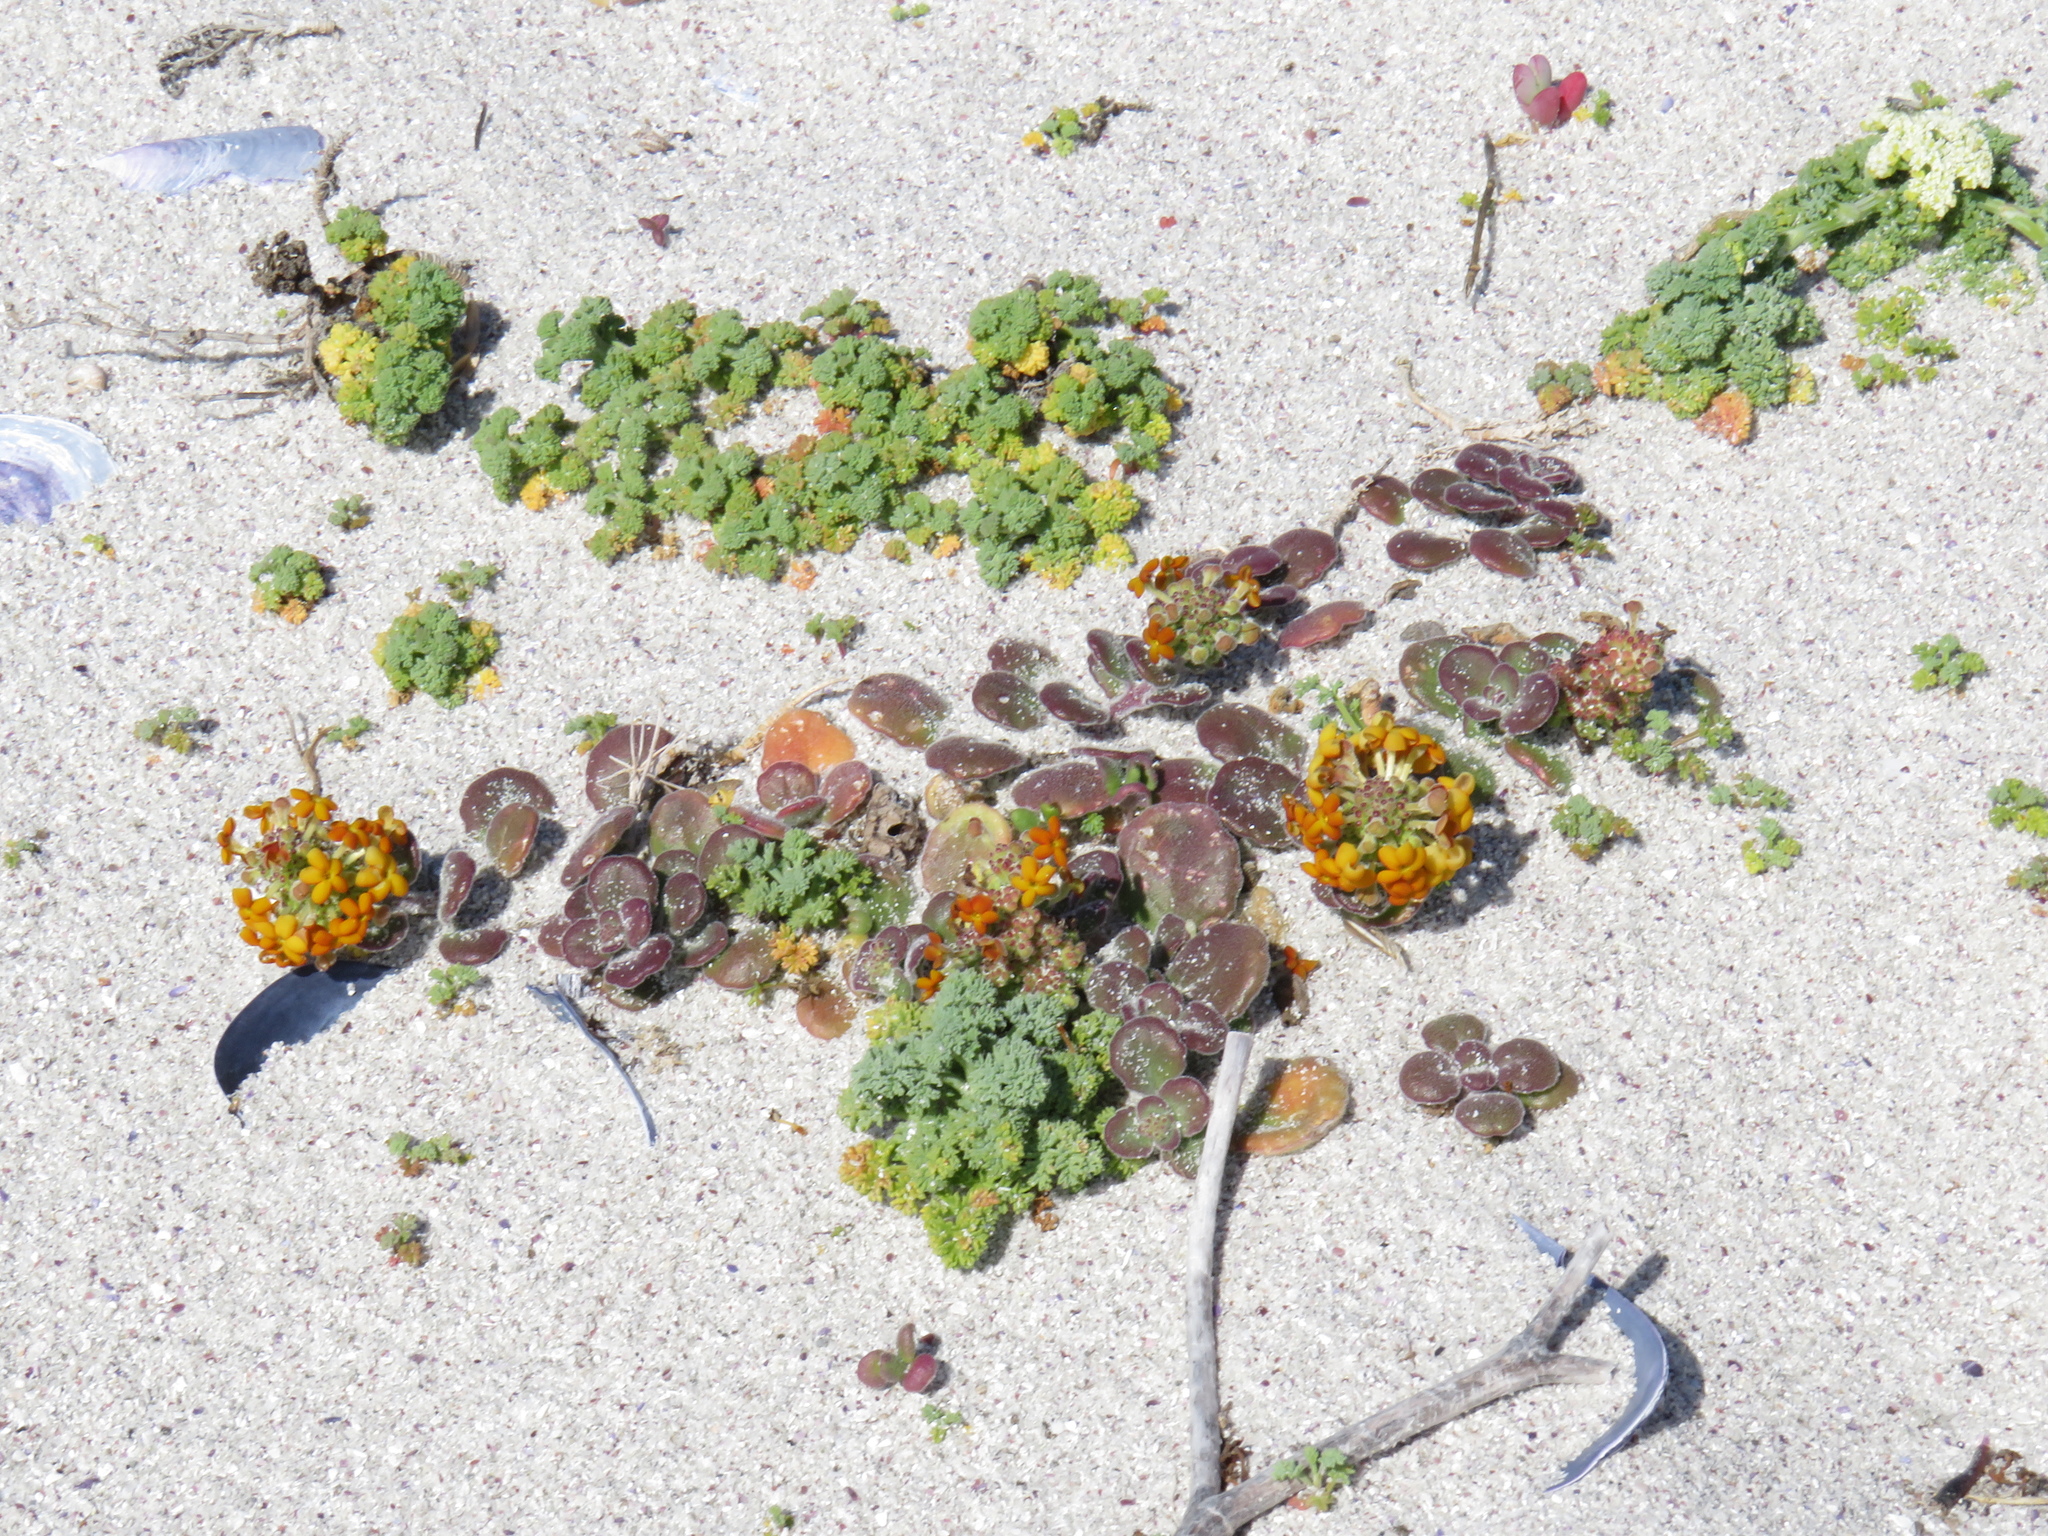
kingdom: Plantae
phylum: Tracheophyta
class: Magnoliopsida
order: Lamiales
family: Scrophulariaceae
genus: Manulea
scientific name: Manulea tomentosa
